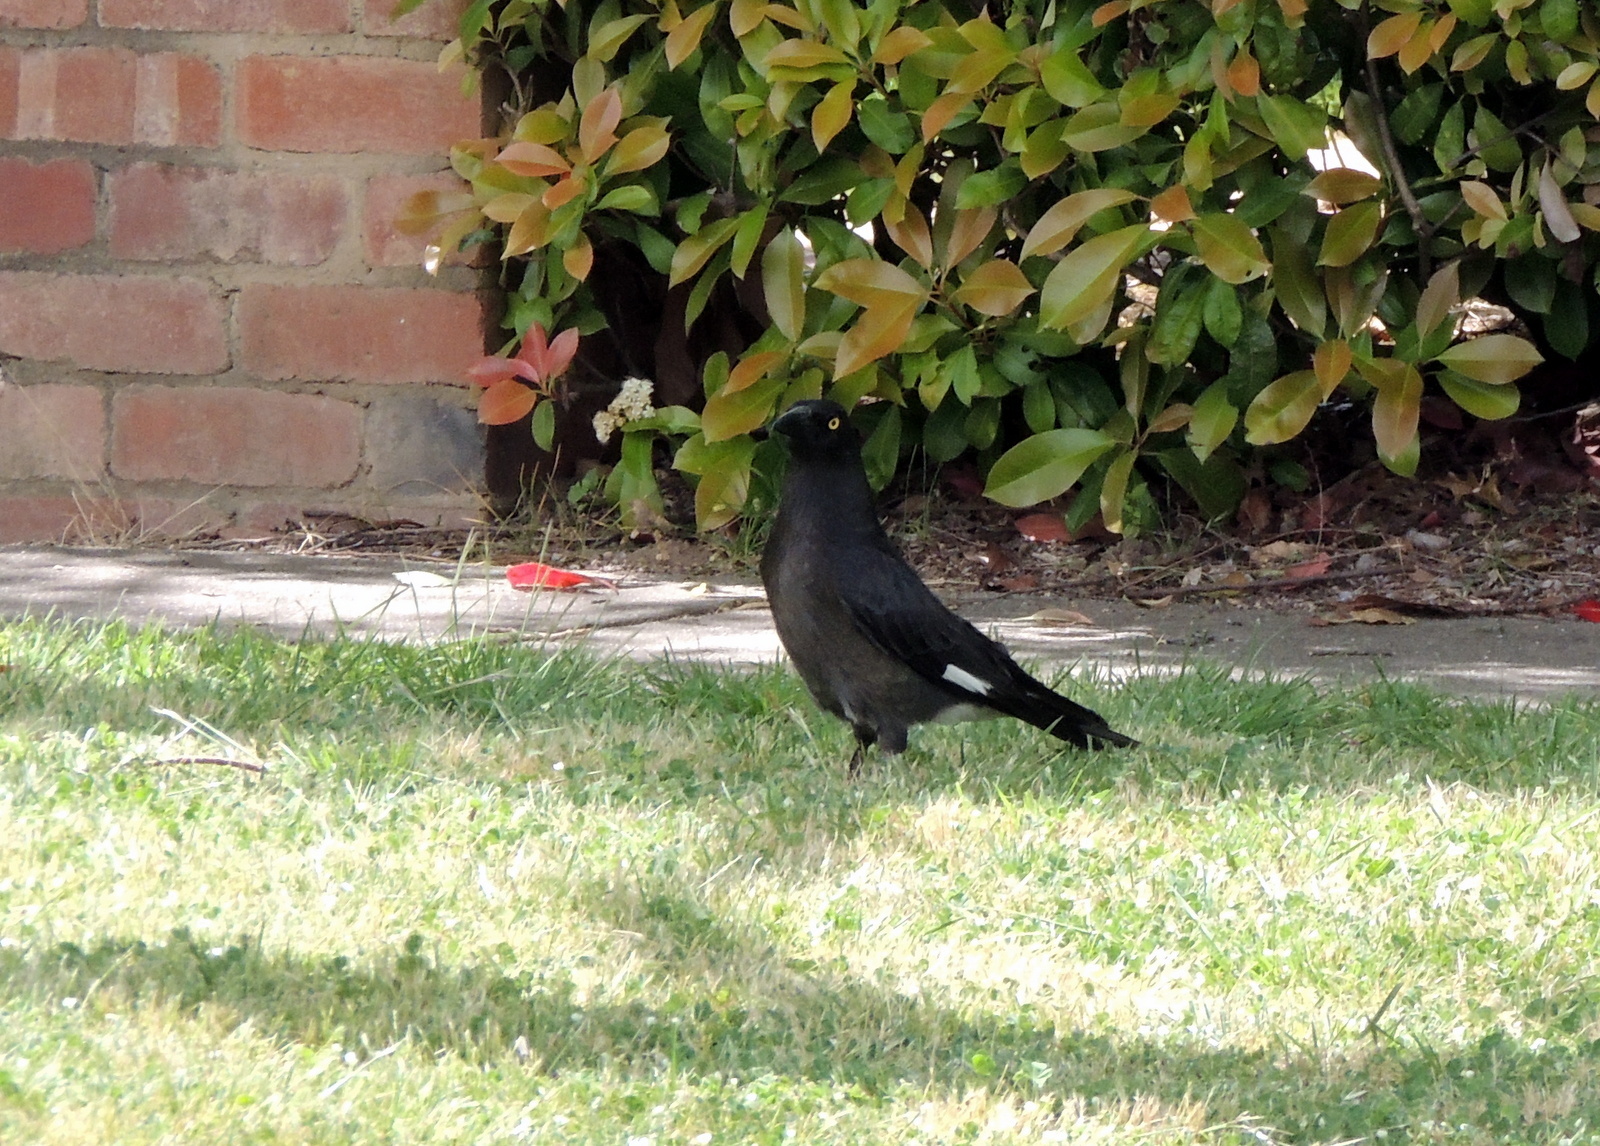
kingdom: Animalia
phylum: Chordata
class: Aves
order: Passeriformes
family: Cracticidae
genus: Strepera
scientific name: Strepera graculina
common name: Pied currawong
